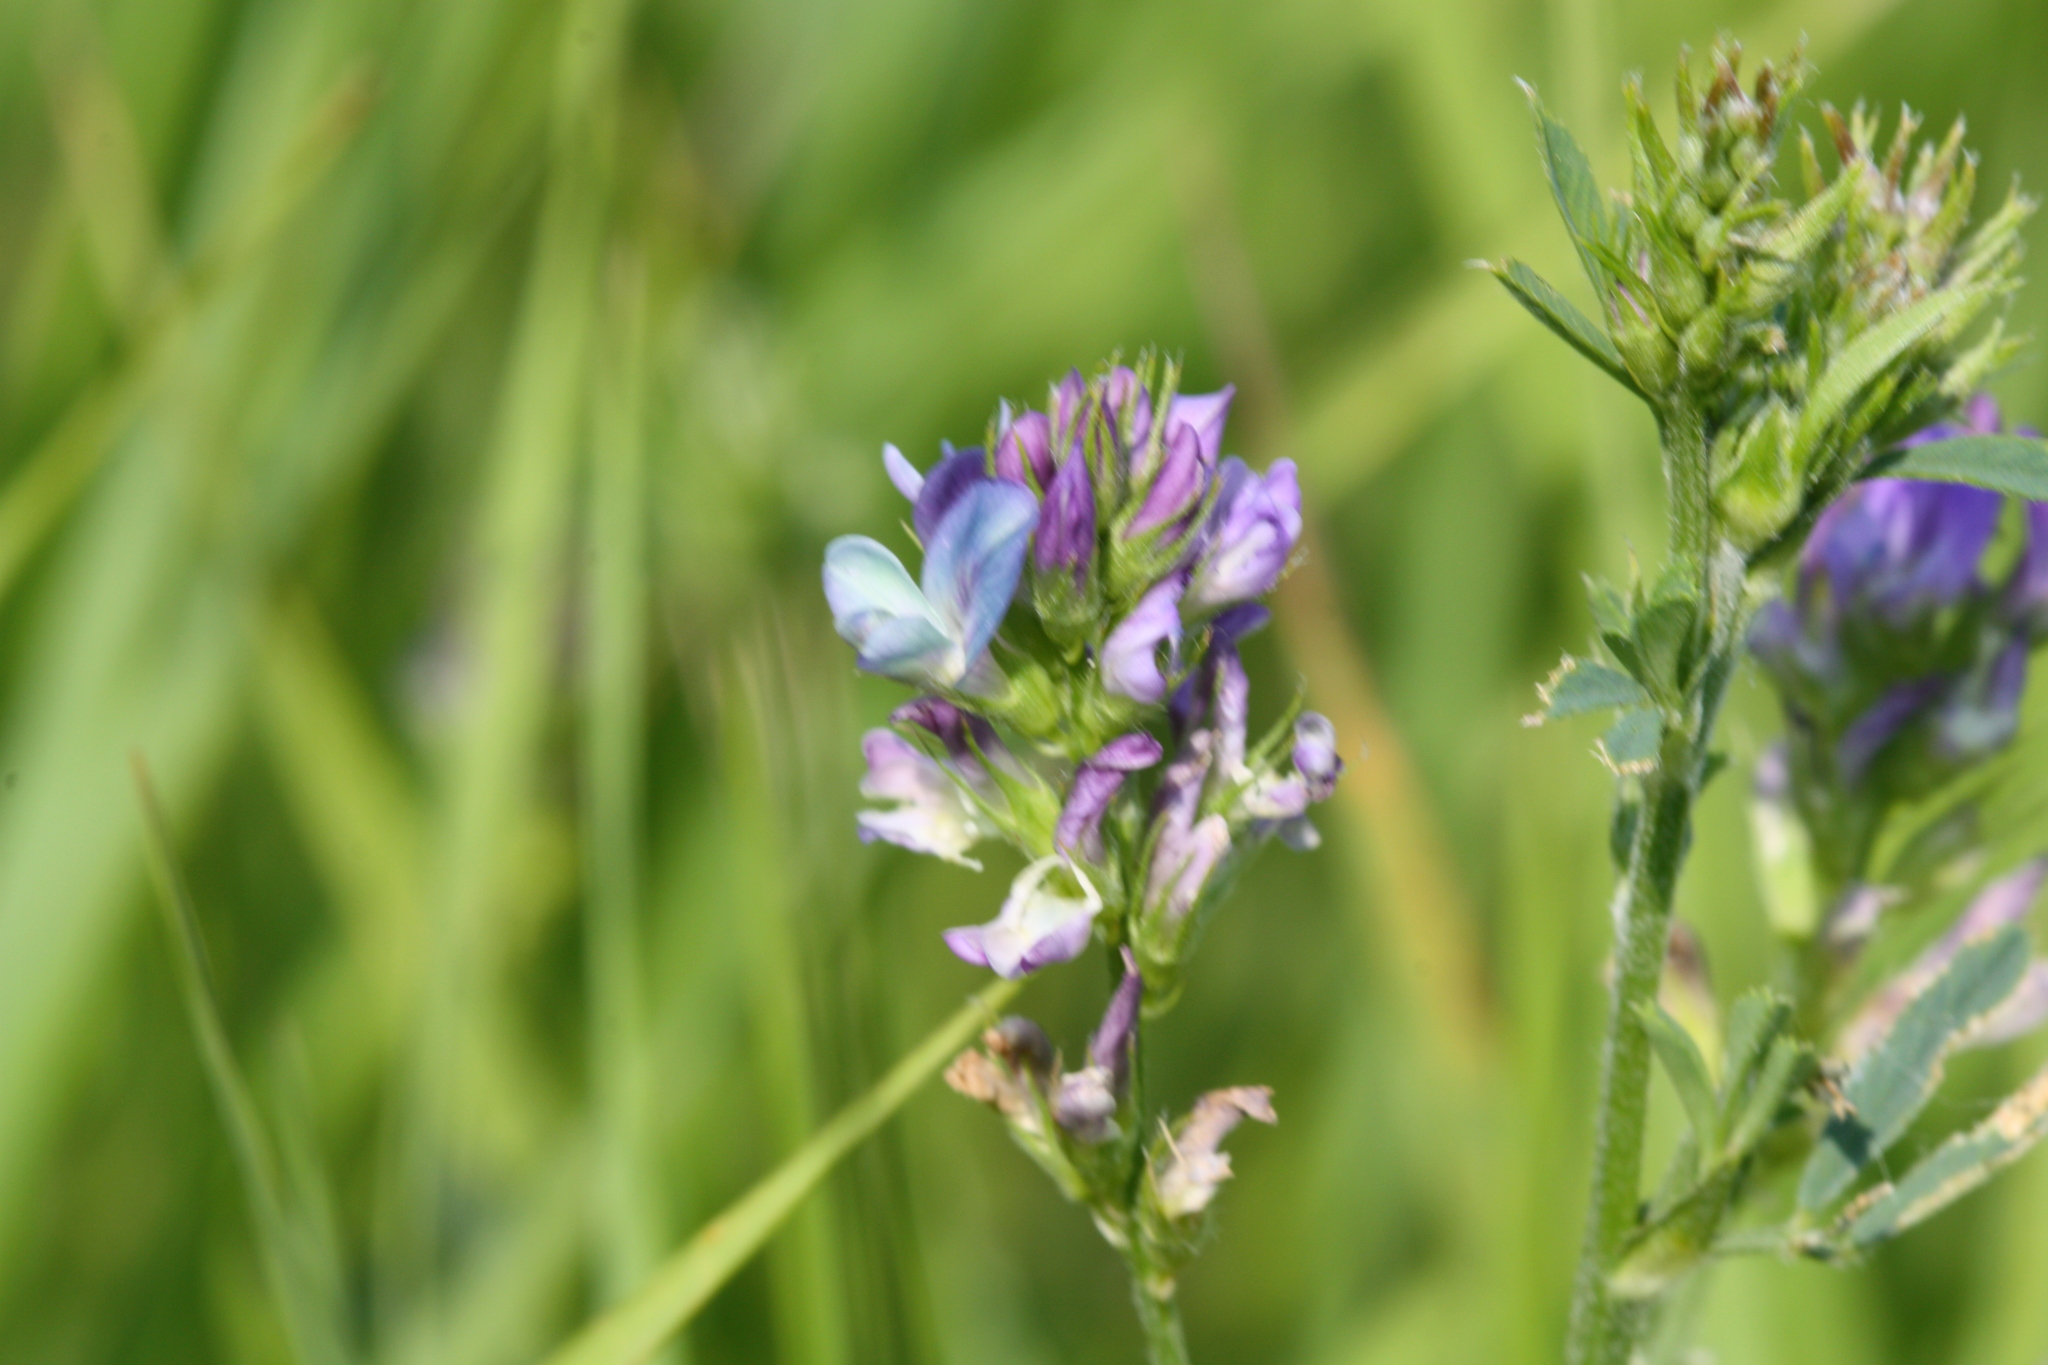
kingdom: Plantae
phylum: Tracheophyta
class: Magnoliopsida
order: Fabales
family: Fabaceae
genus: Medicago
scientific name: Medicago sativa
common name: Alfalfa
